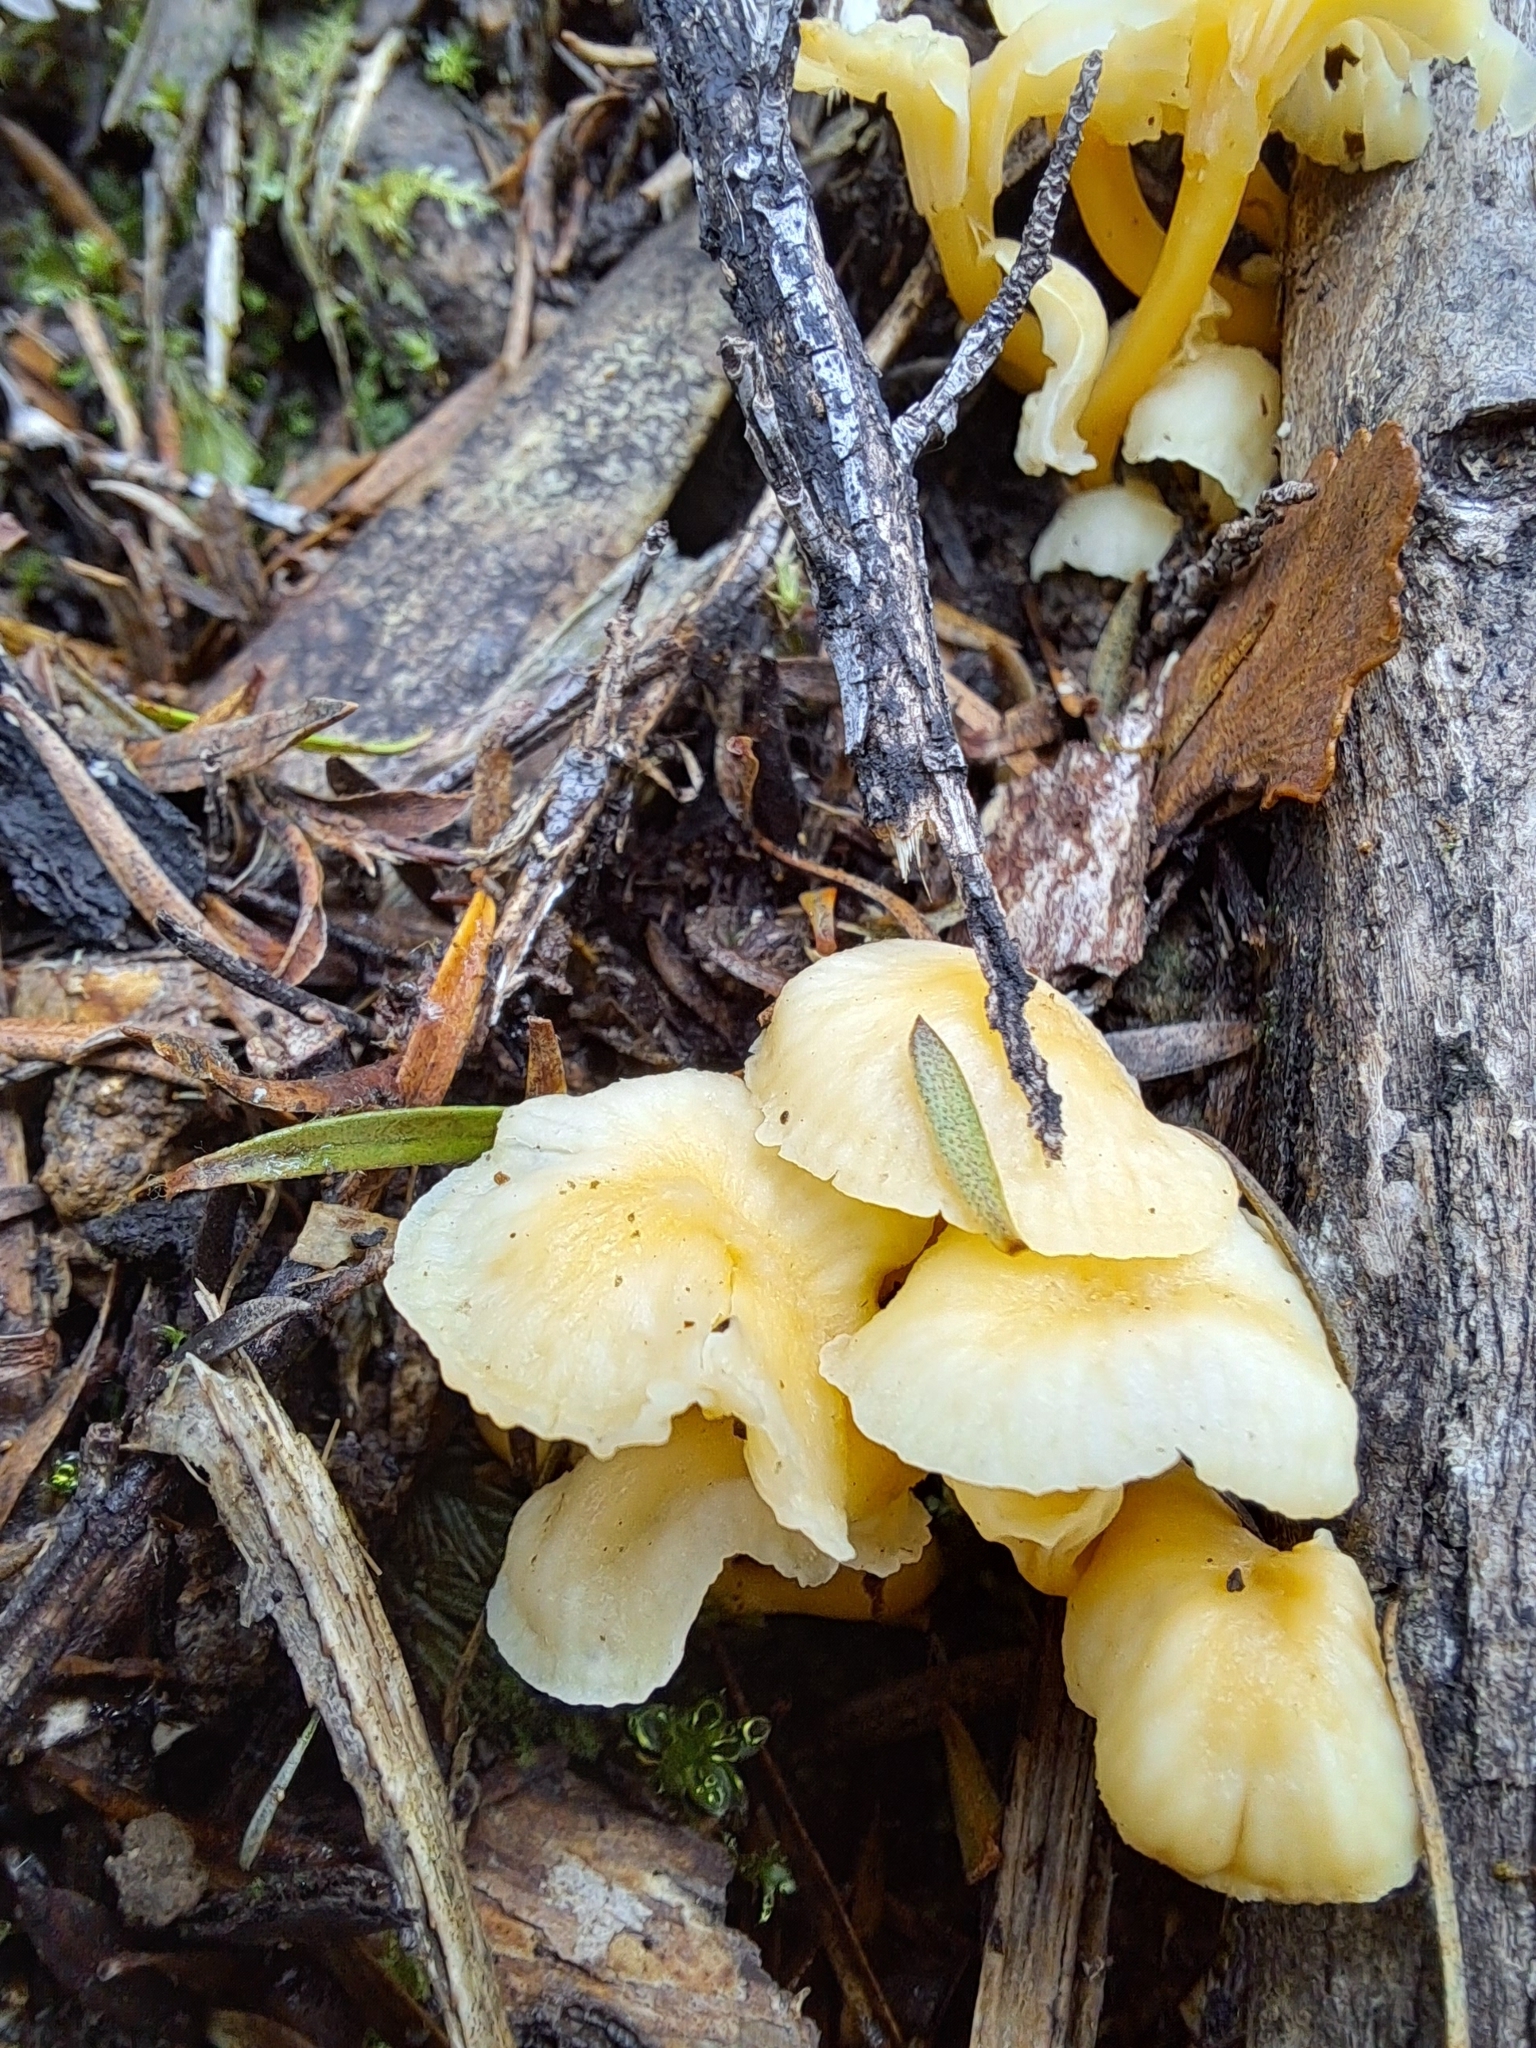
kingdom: Fungi
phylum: Basidiomycota
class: Agaricomycetes
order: Cantharellales
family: Hydnaceae
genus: Cantharellus
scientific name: Cantharellus wellingtonensis
